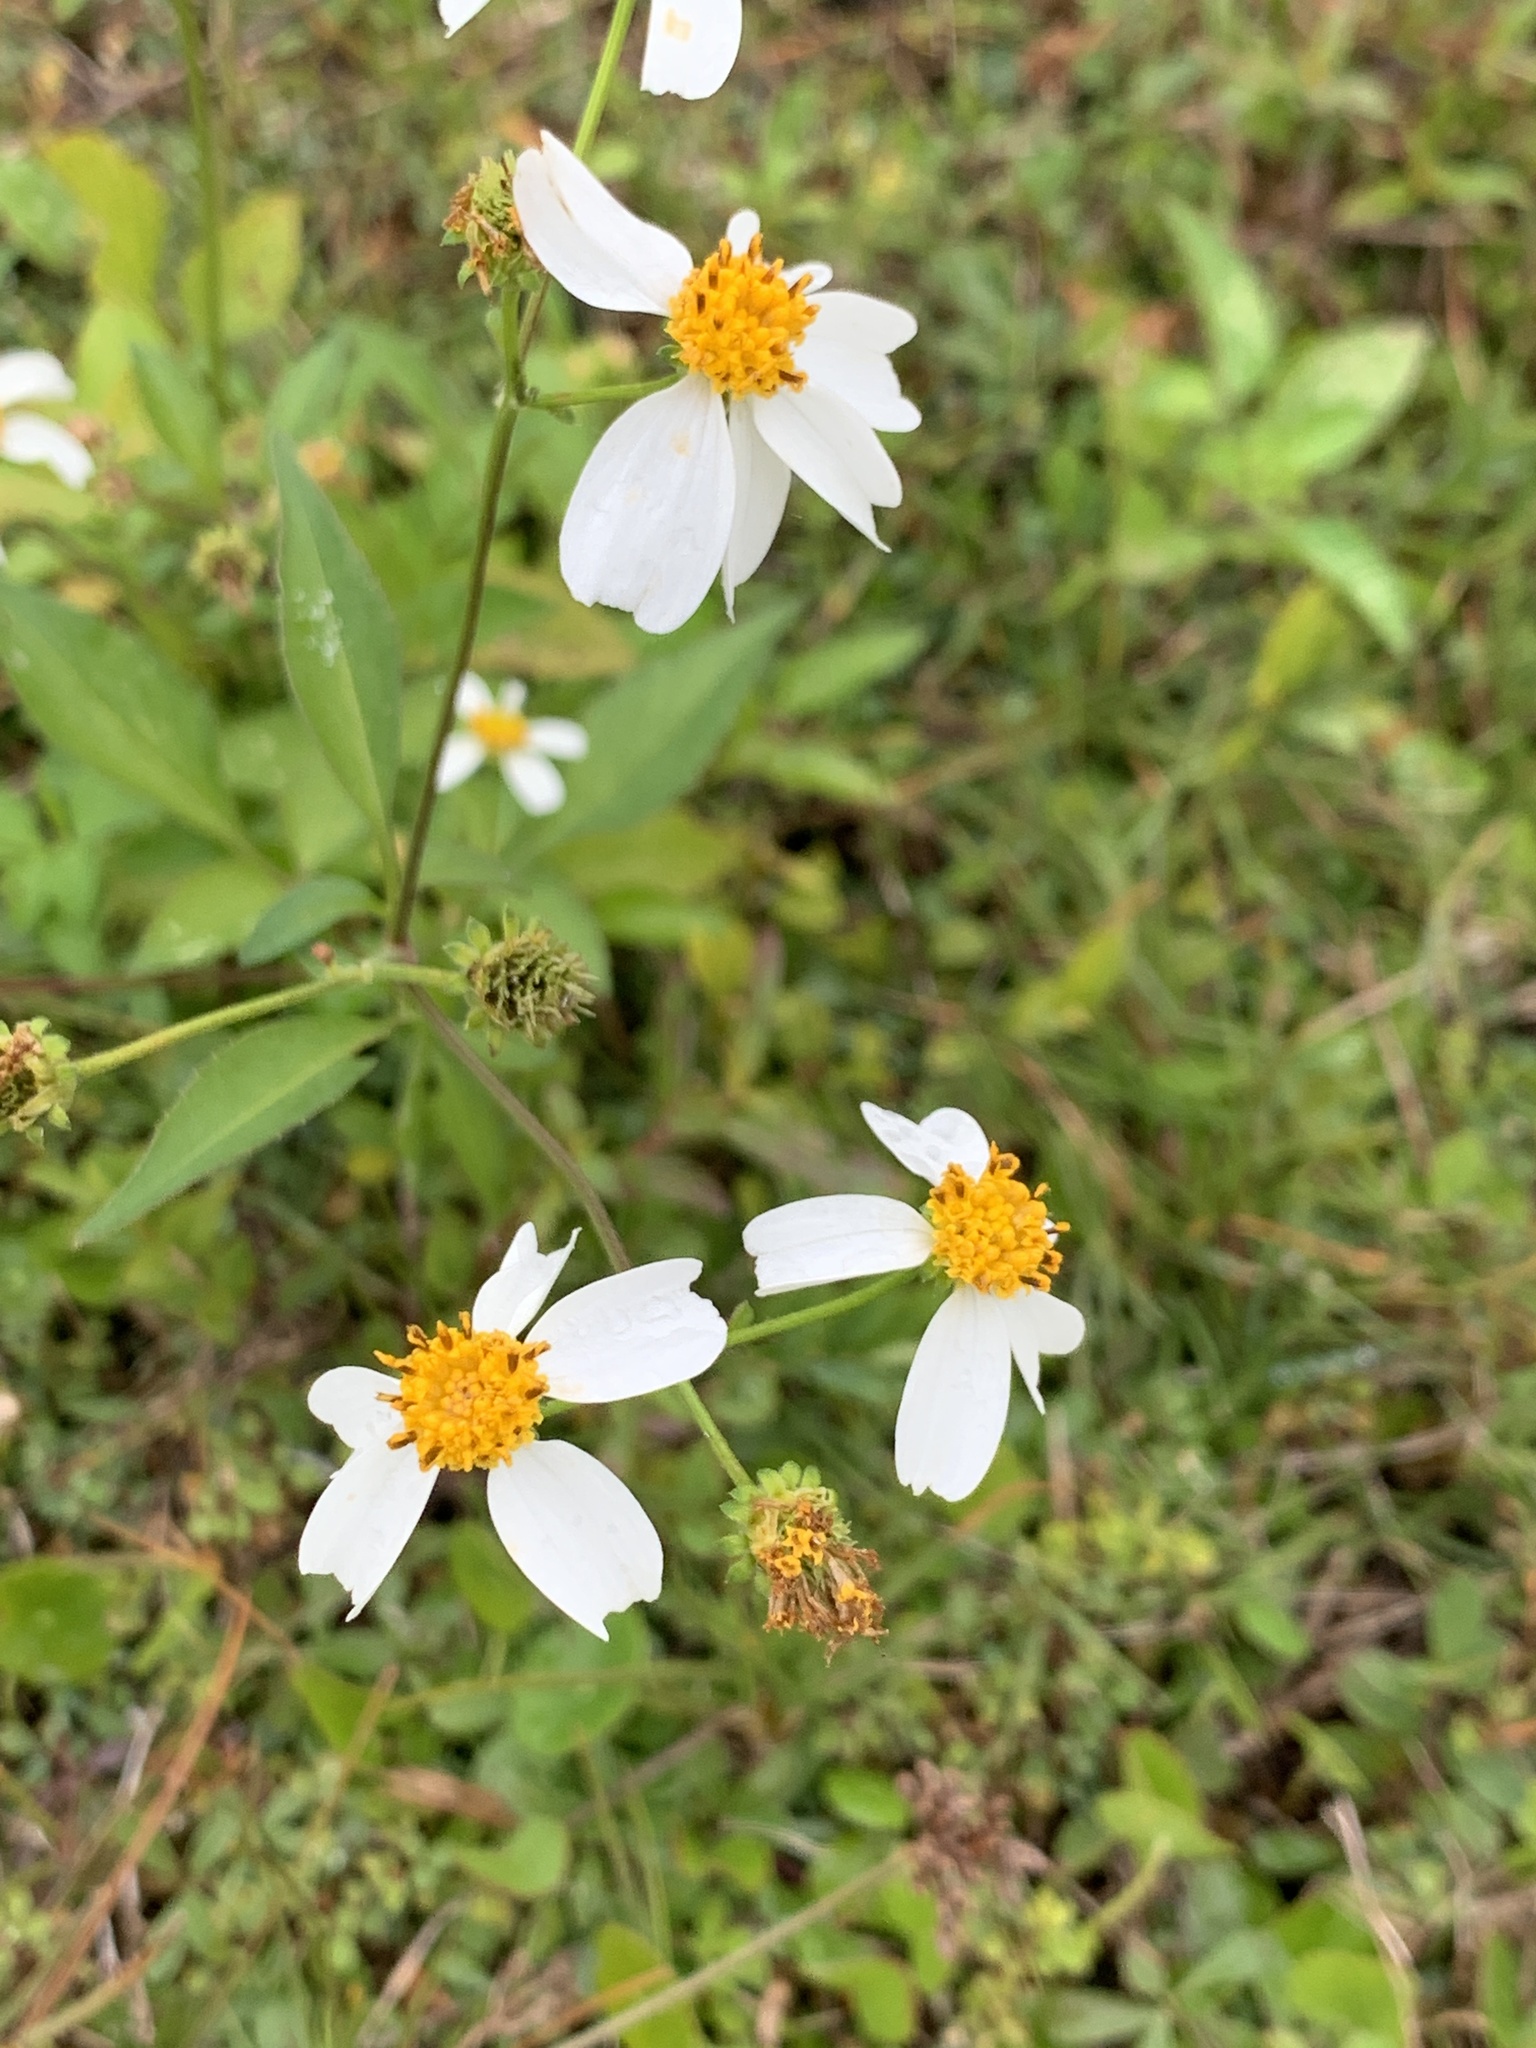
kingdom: Plantae
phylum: Tracheophyta
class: Magnoliopsida
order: Asterales
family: Asteraceae
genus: Bidens
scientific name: Bidens alba
